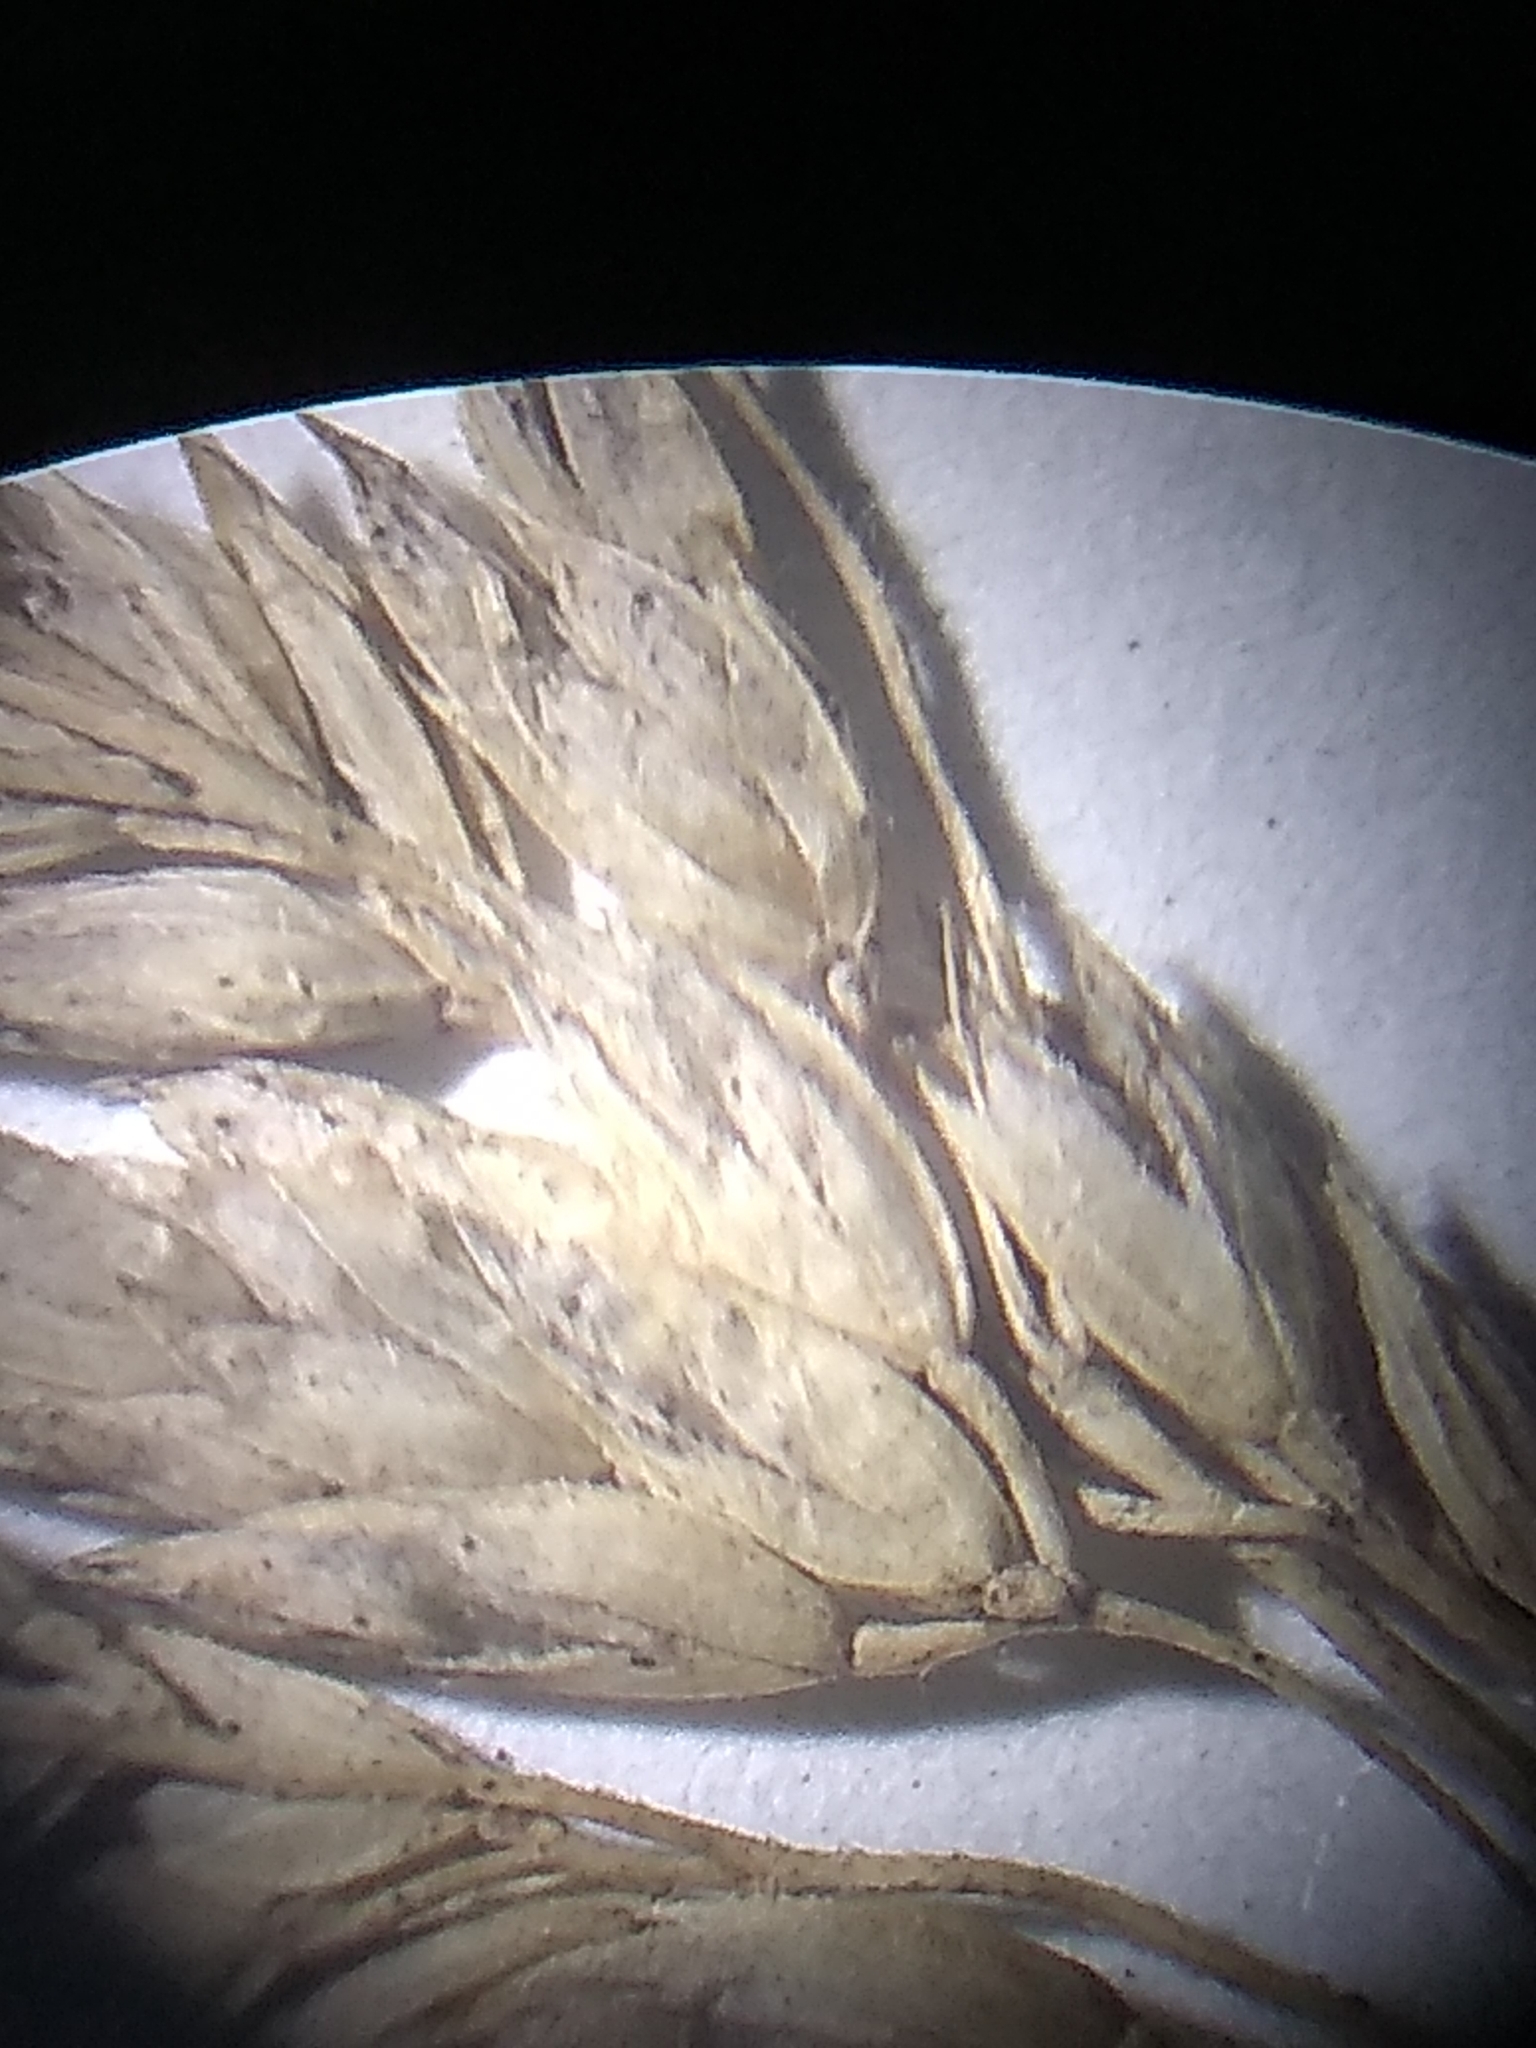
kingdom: Plantae
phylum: Tracheophyta
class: Liliopsida
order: Poales
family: Poaceae
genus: Poa
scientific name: Poa pratensis
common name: Kentucky bluegrass
